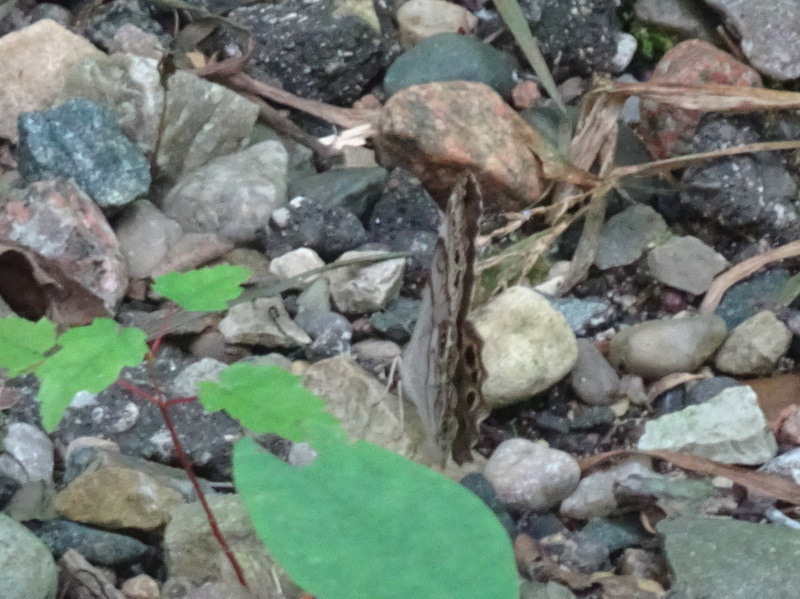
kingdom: Animalia
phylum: Arthropoda
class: Insecta
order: Lepidoptera
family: Nymphalidae
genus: Lethe
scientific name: Lethe anthedon
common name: Northern pearly-eye
